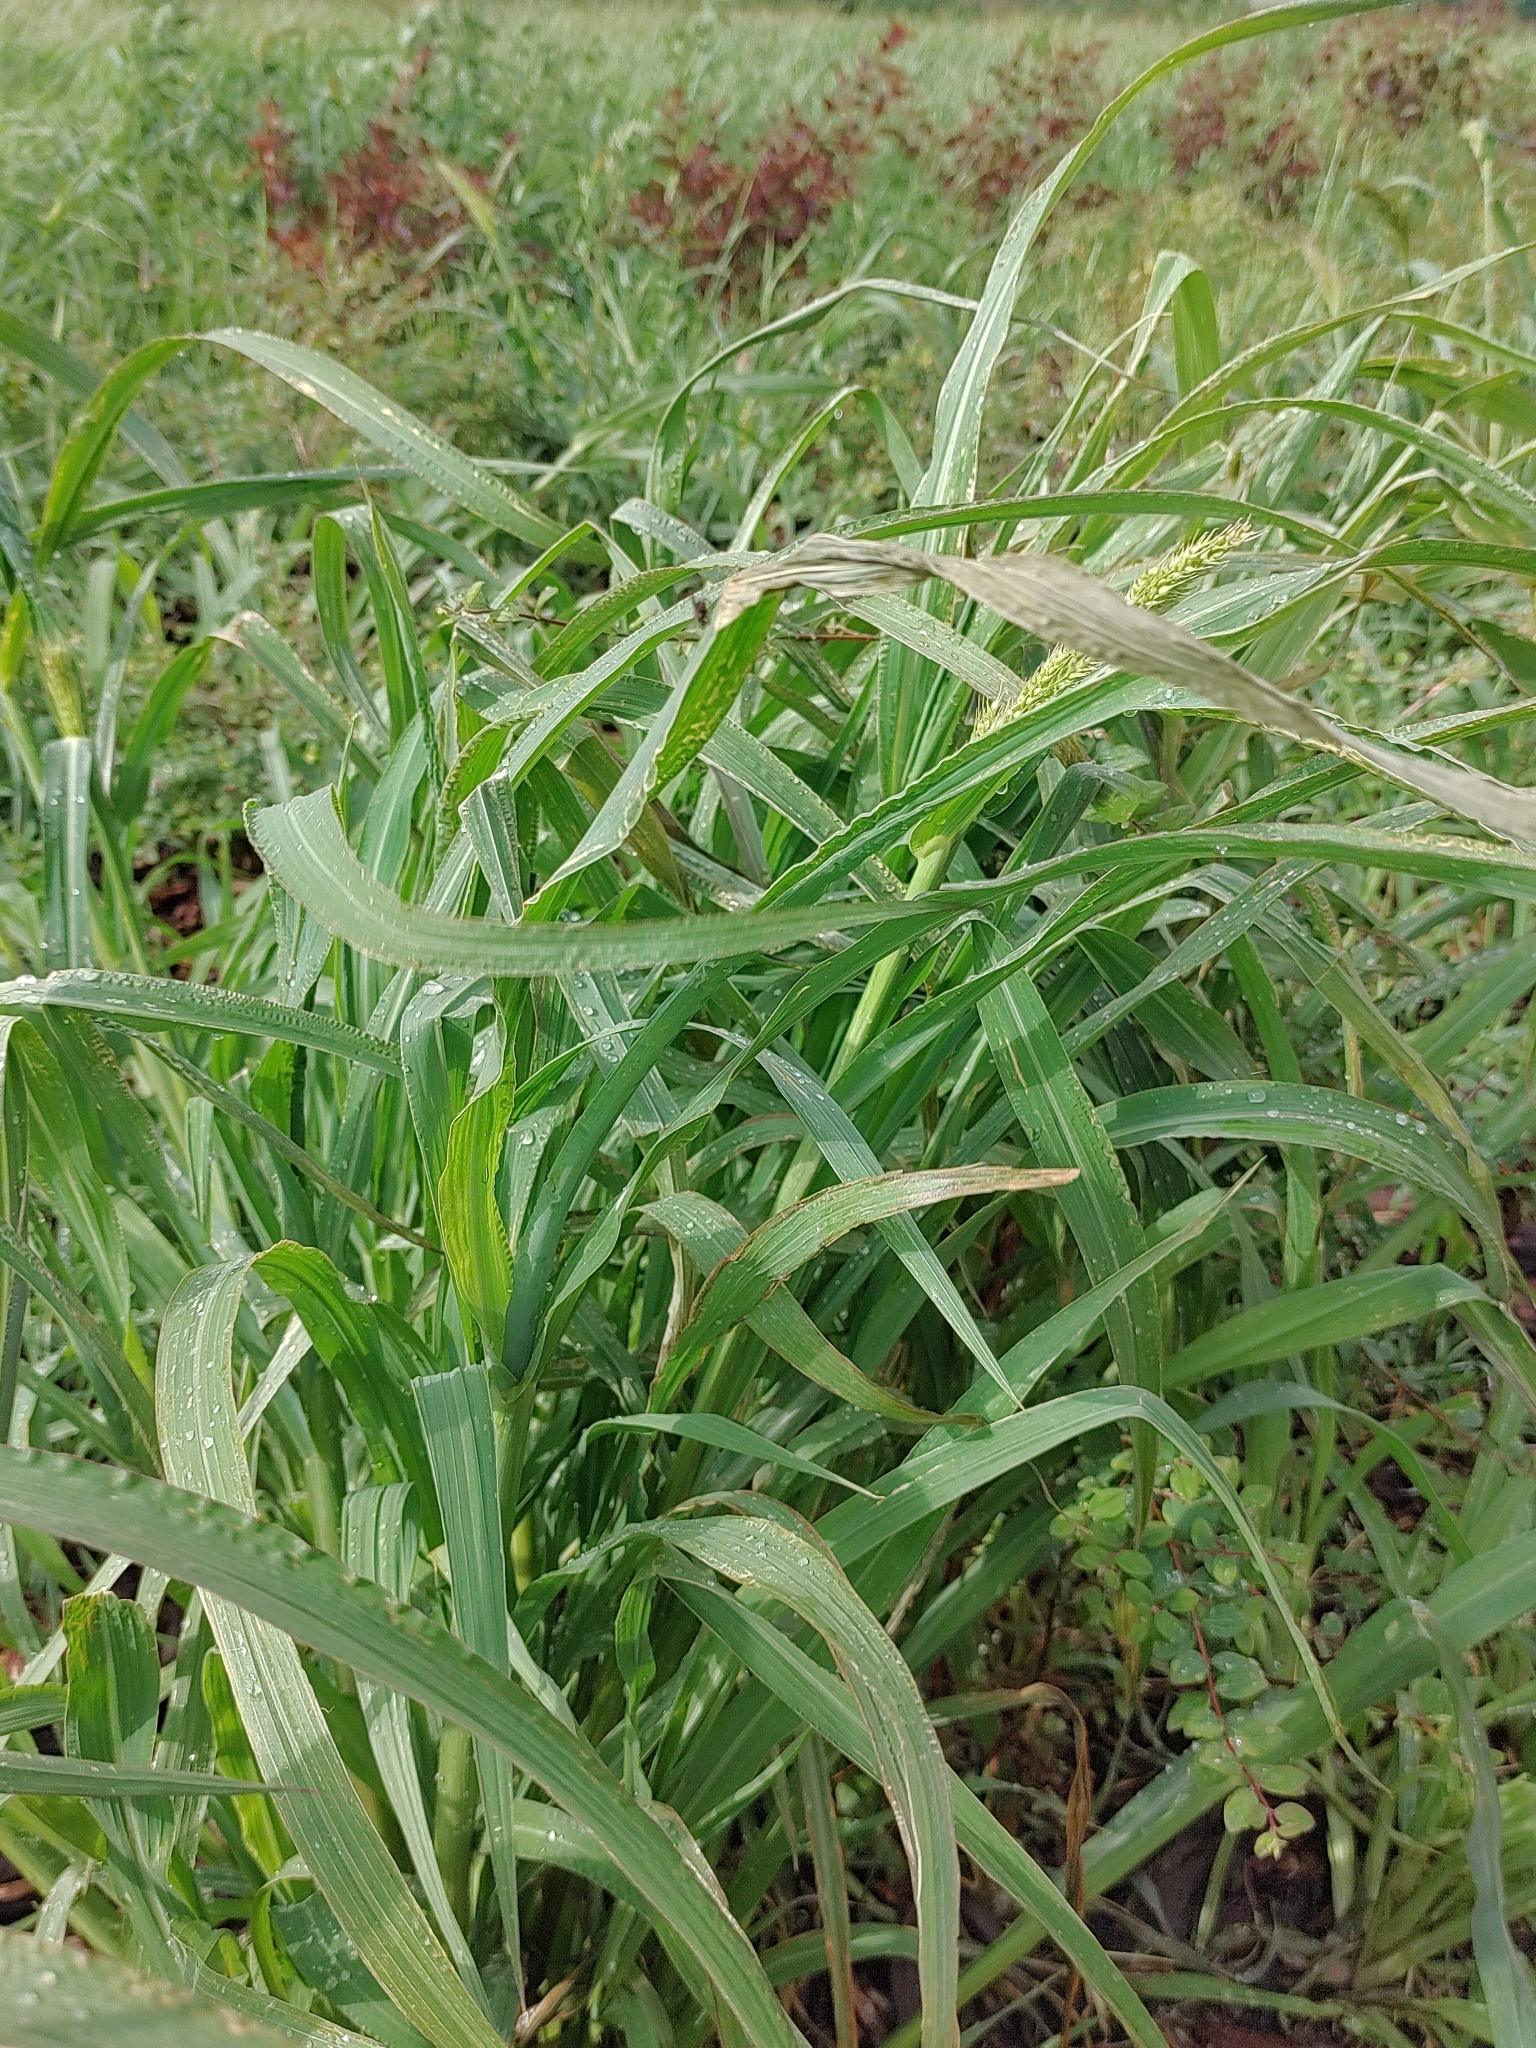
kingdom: Plantae
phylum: Tracheophyta
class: Liliopsida
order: Poales
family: Poaceae
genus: Echinochloa
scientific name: Echinochloa crus-galli
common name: Cockspur
